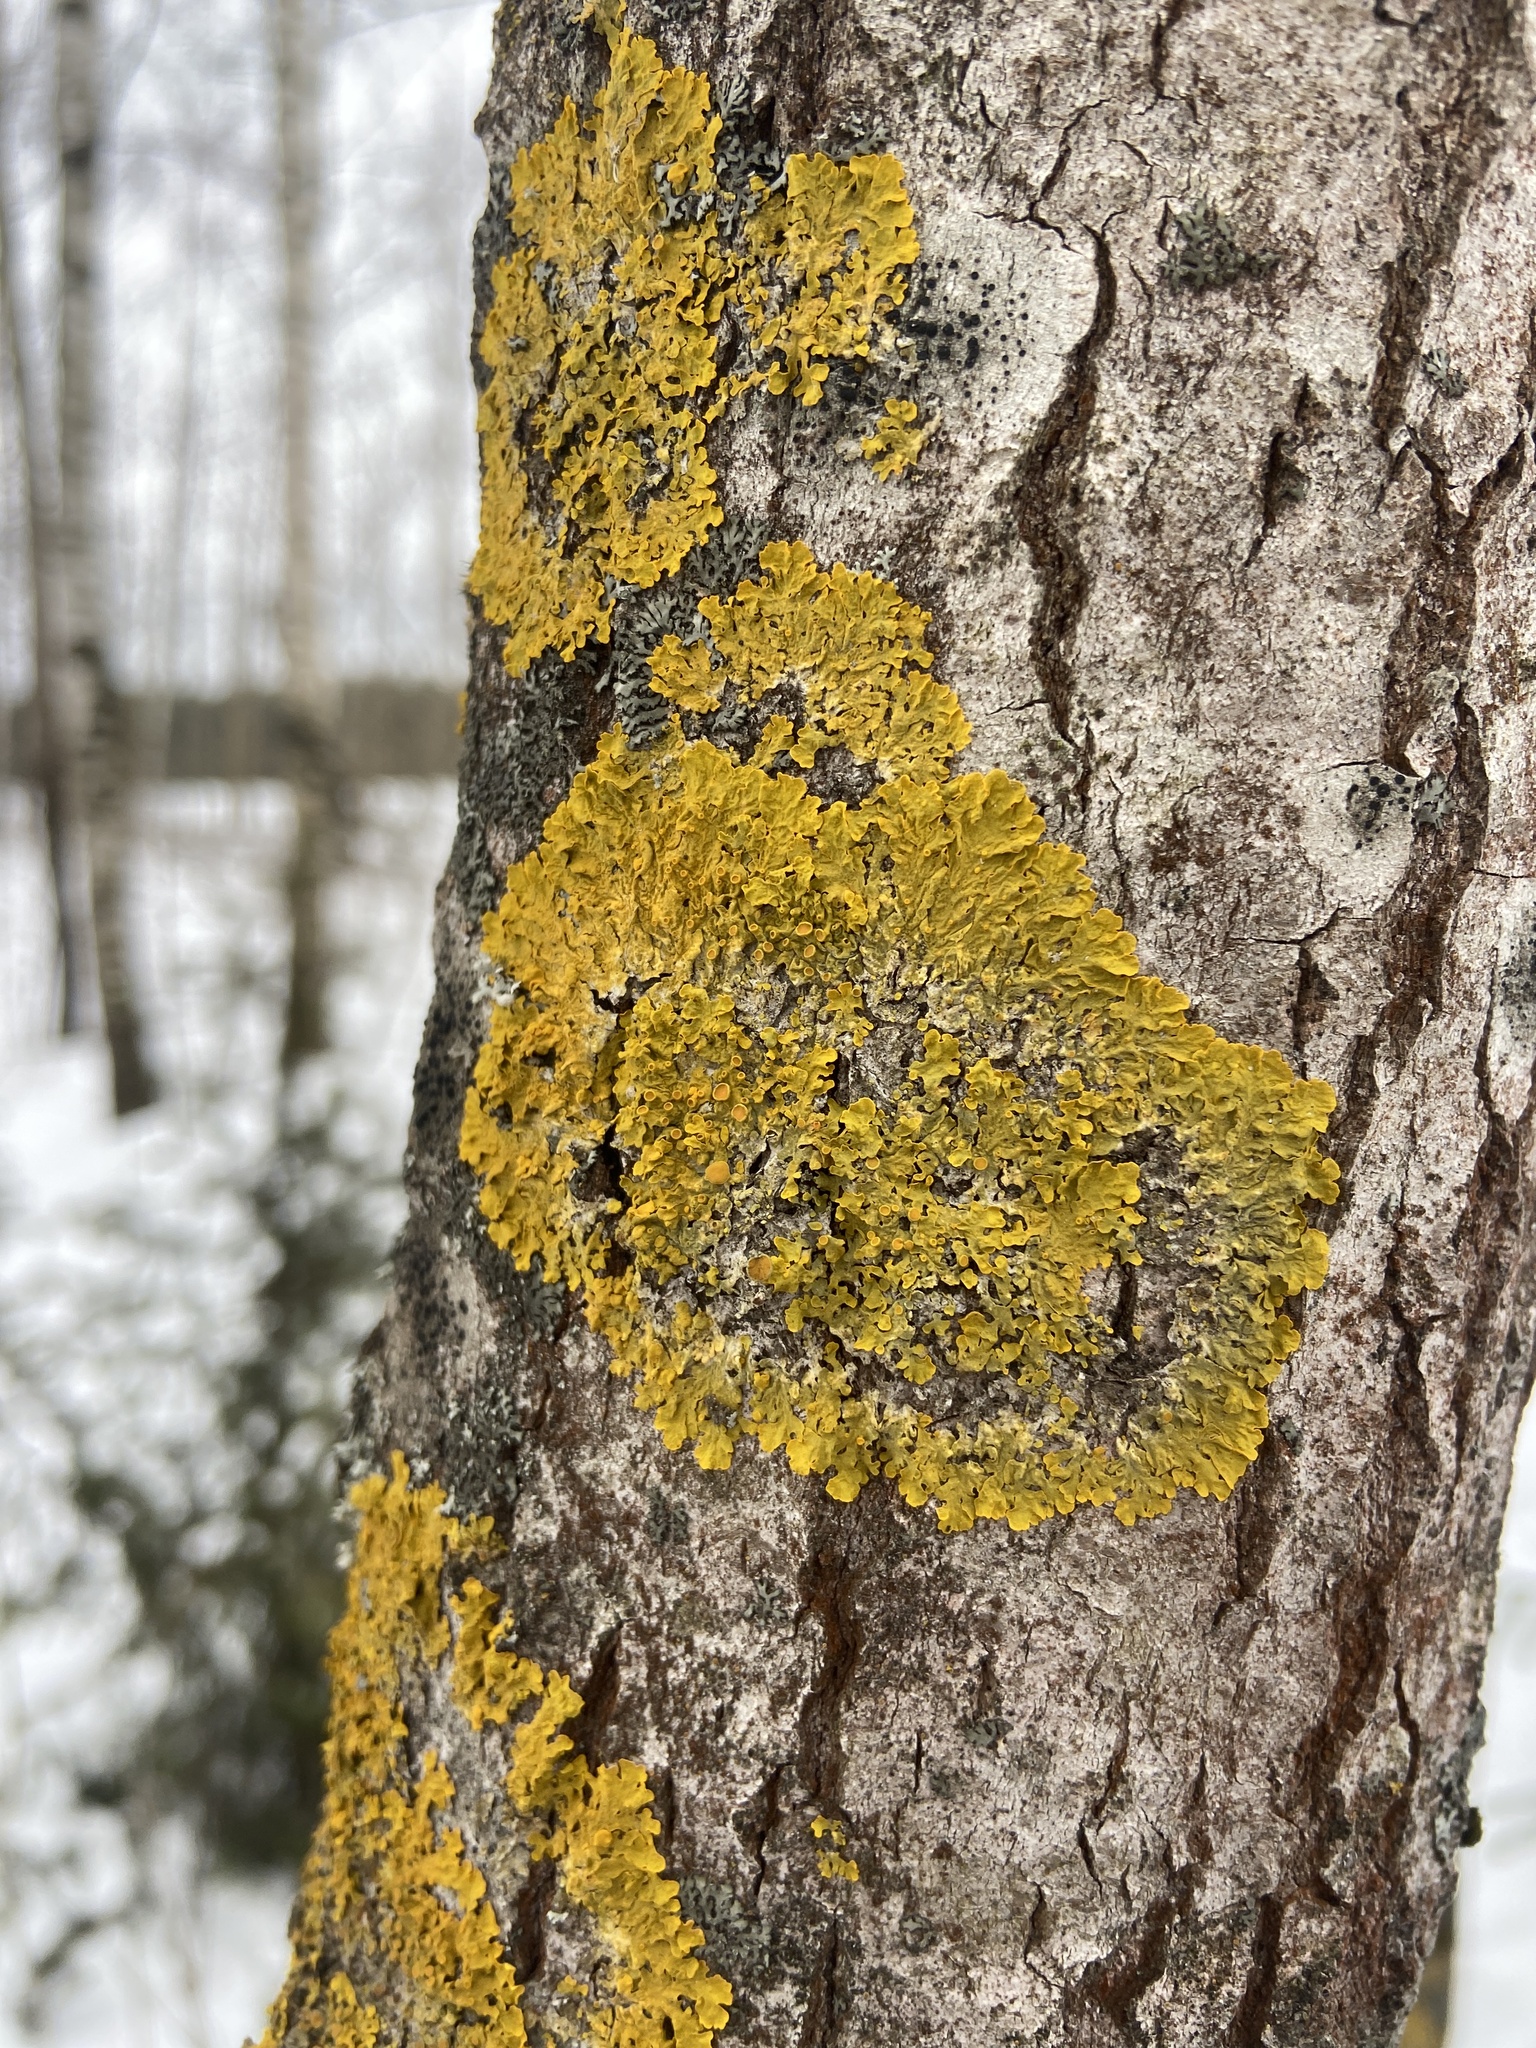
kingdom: Fungi
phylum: Ascomycota
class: Lecanoromycetes
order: Teloschistales
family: Teloschistaceae
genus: Xanthoria
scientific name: Xanthoria parietina
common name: Common orange lichen
